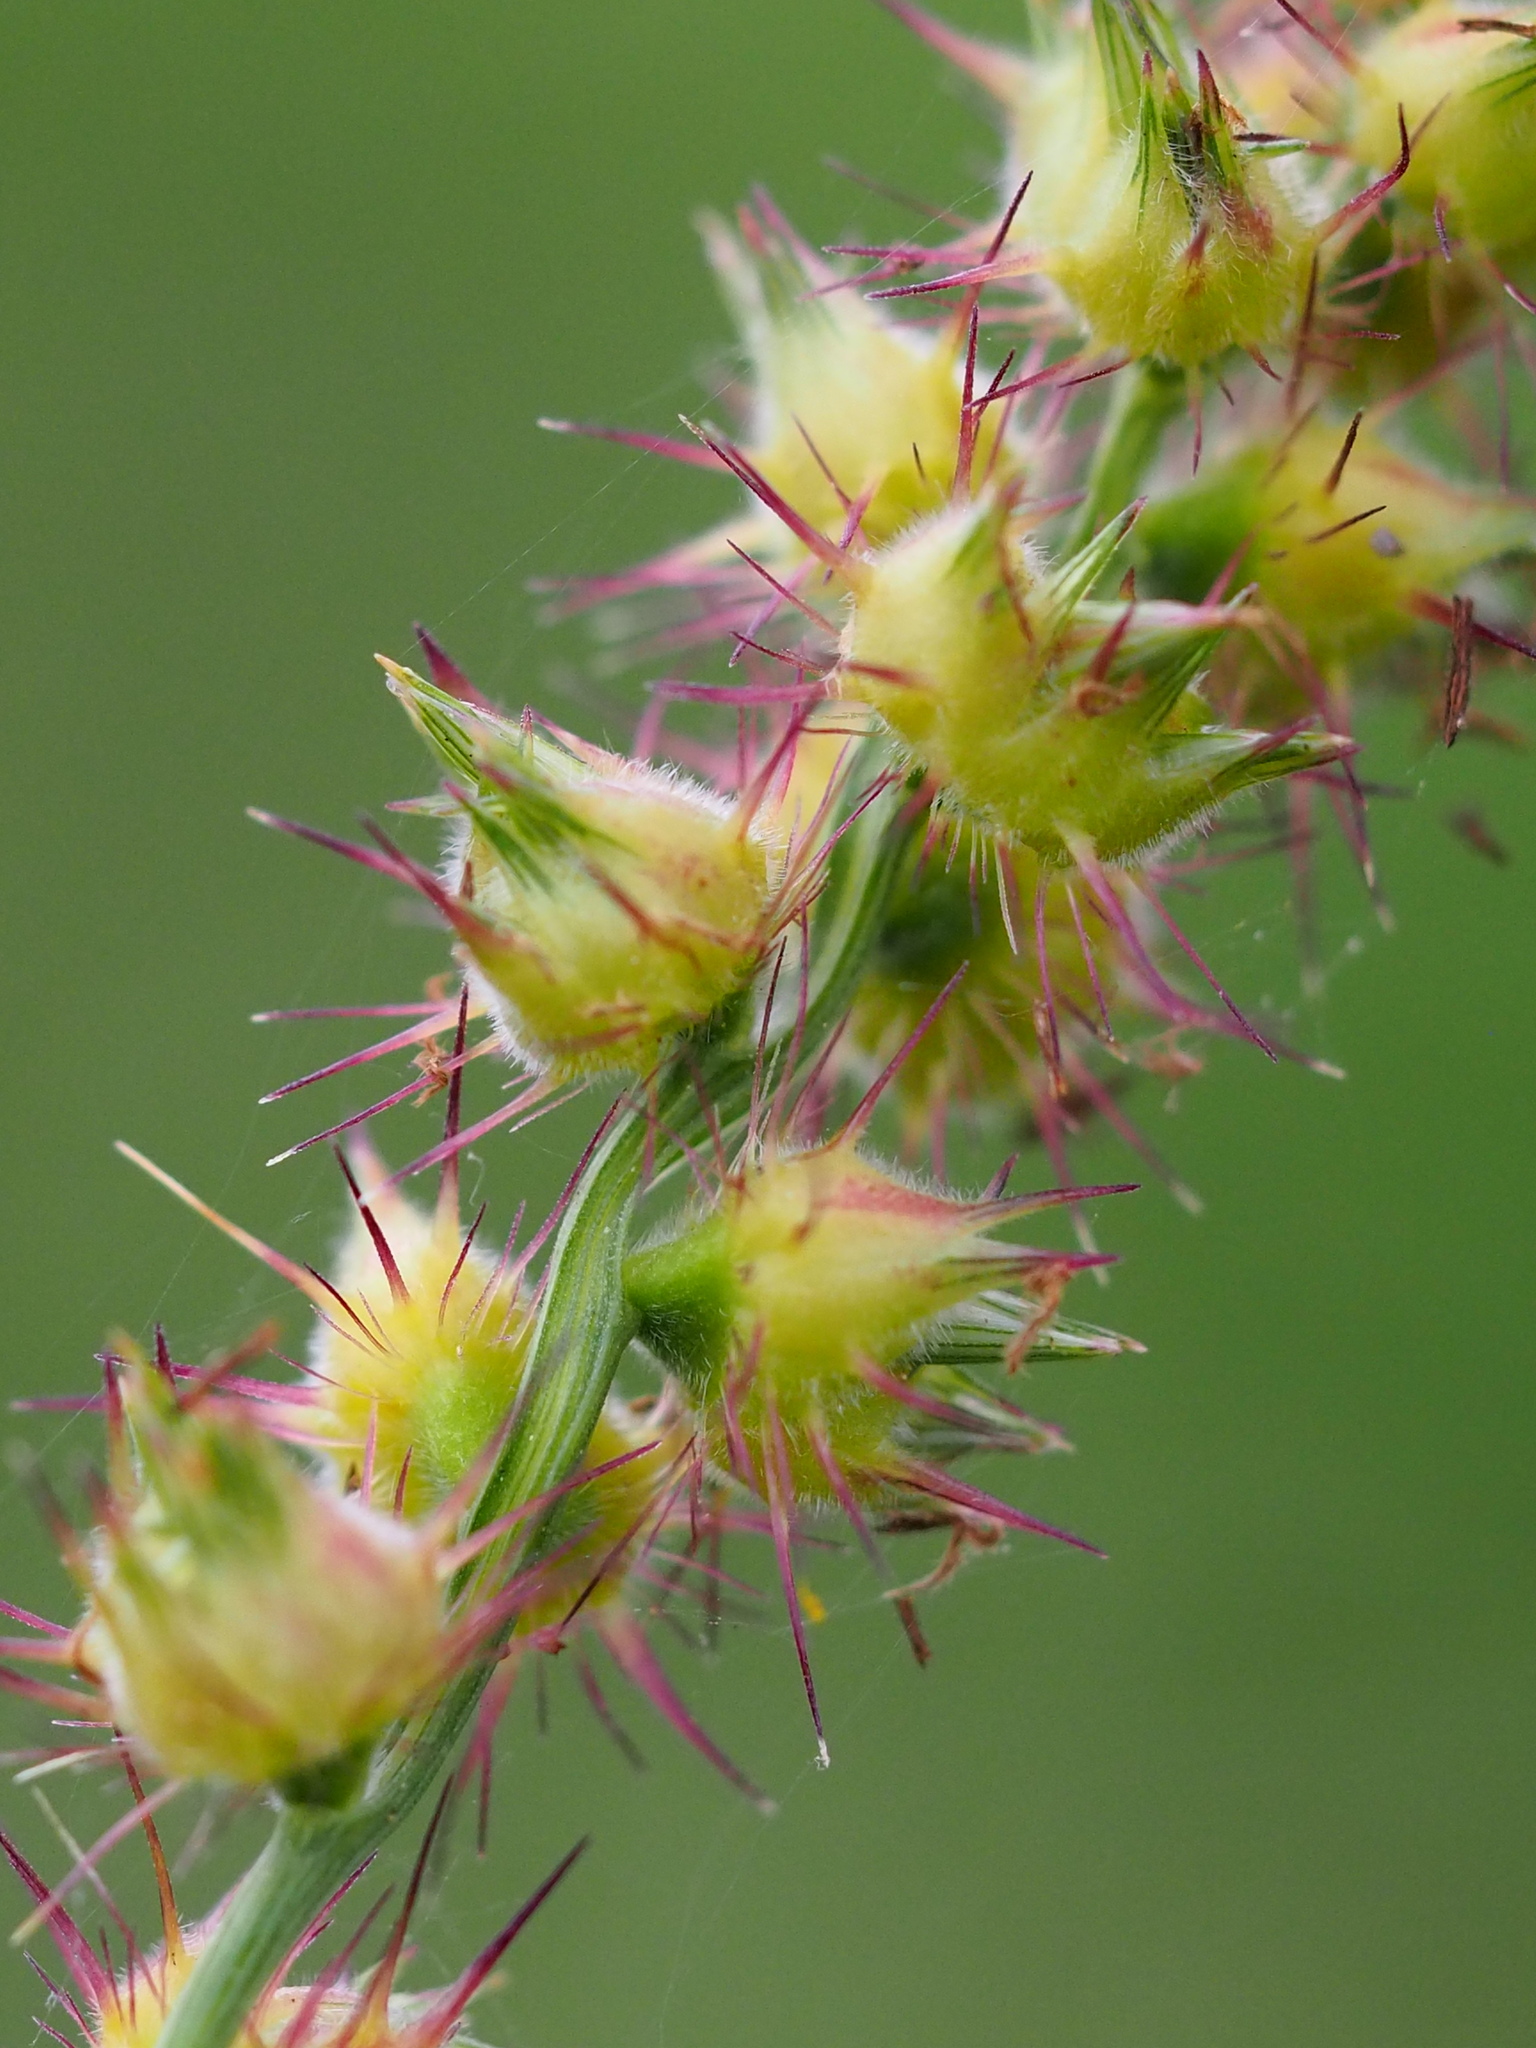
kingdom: Plantae
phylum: Tracheophyta
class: Liliopsida
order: Poales
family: Poaceae
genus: Cenchrus
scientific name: Cenchrus echinatus
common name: Southern sandbur
